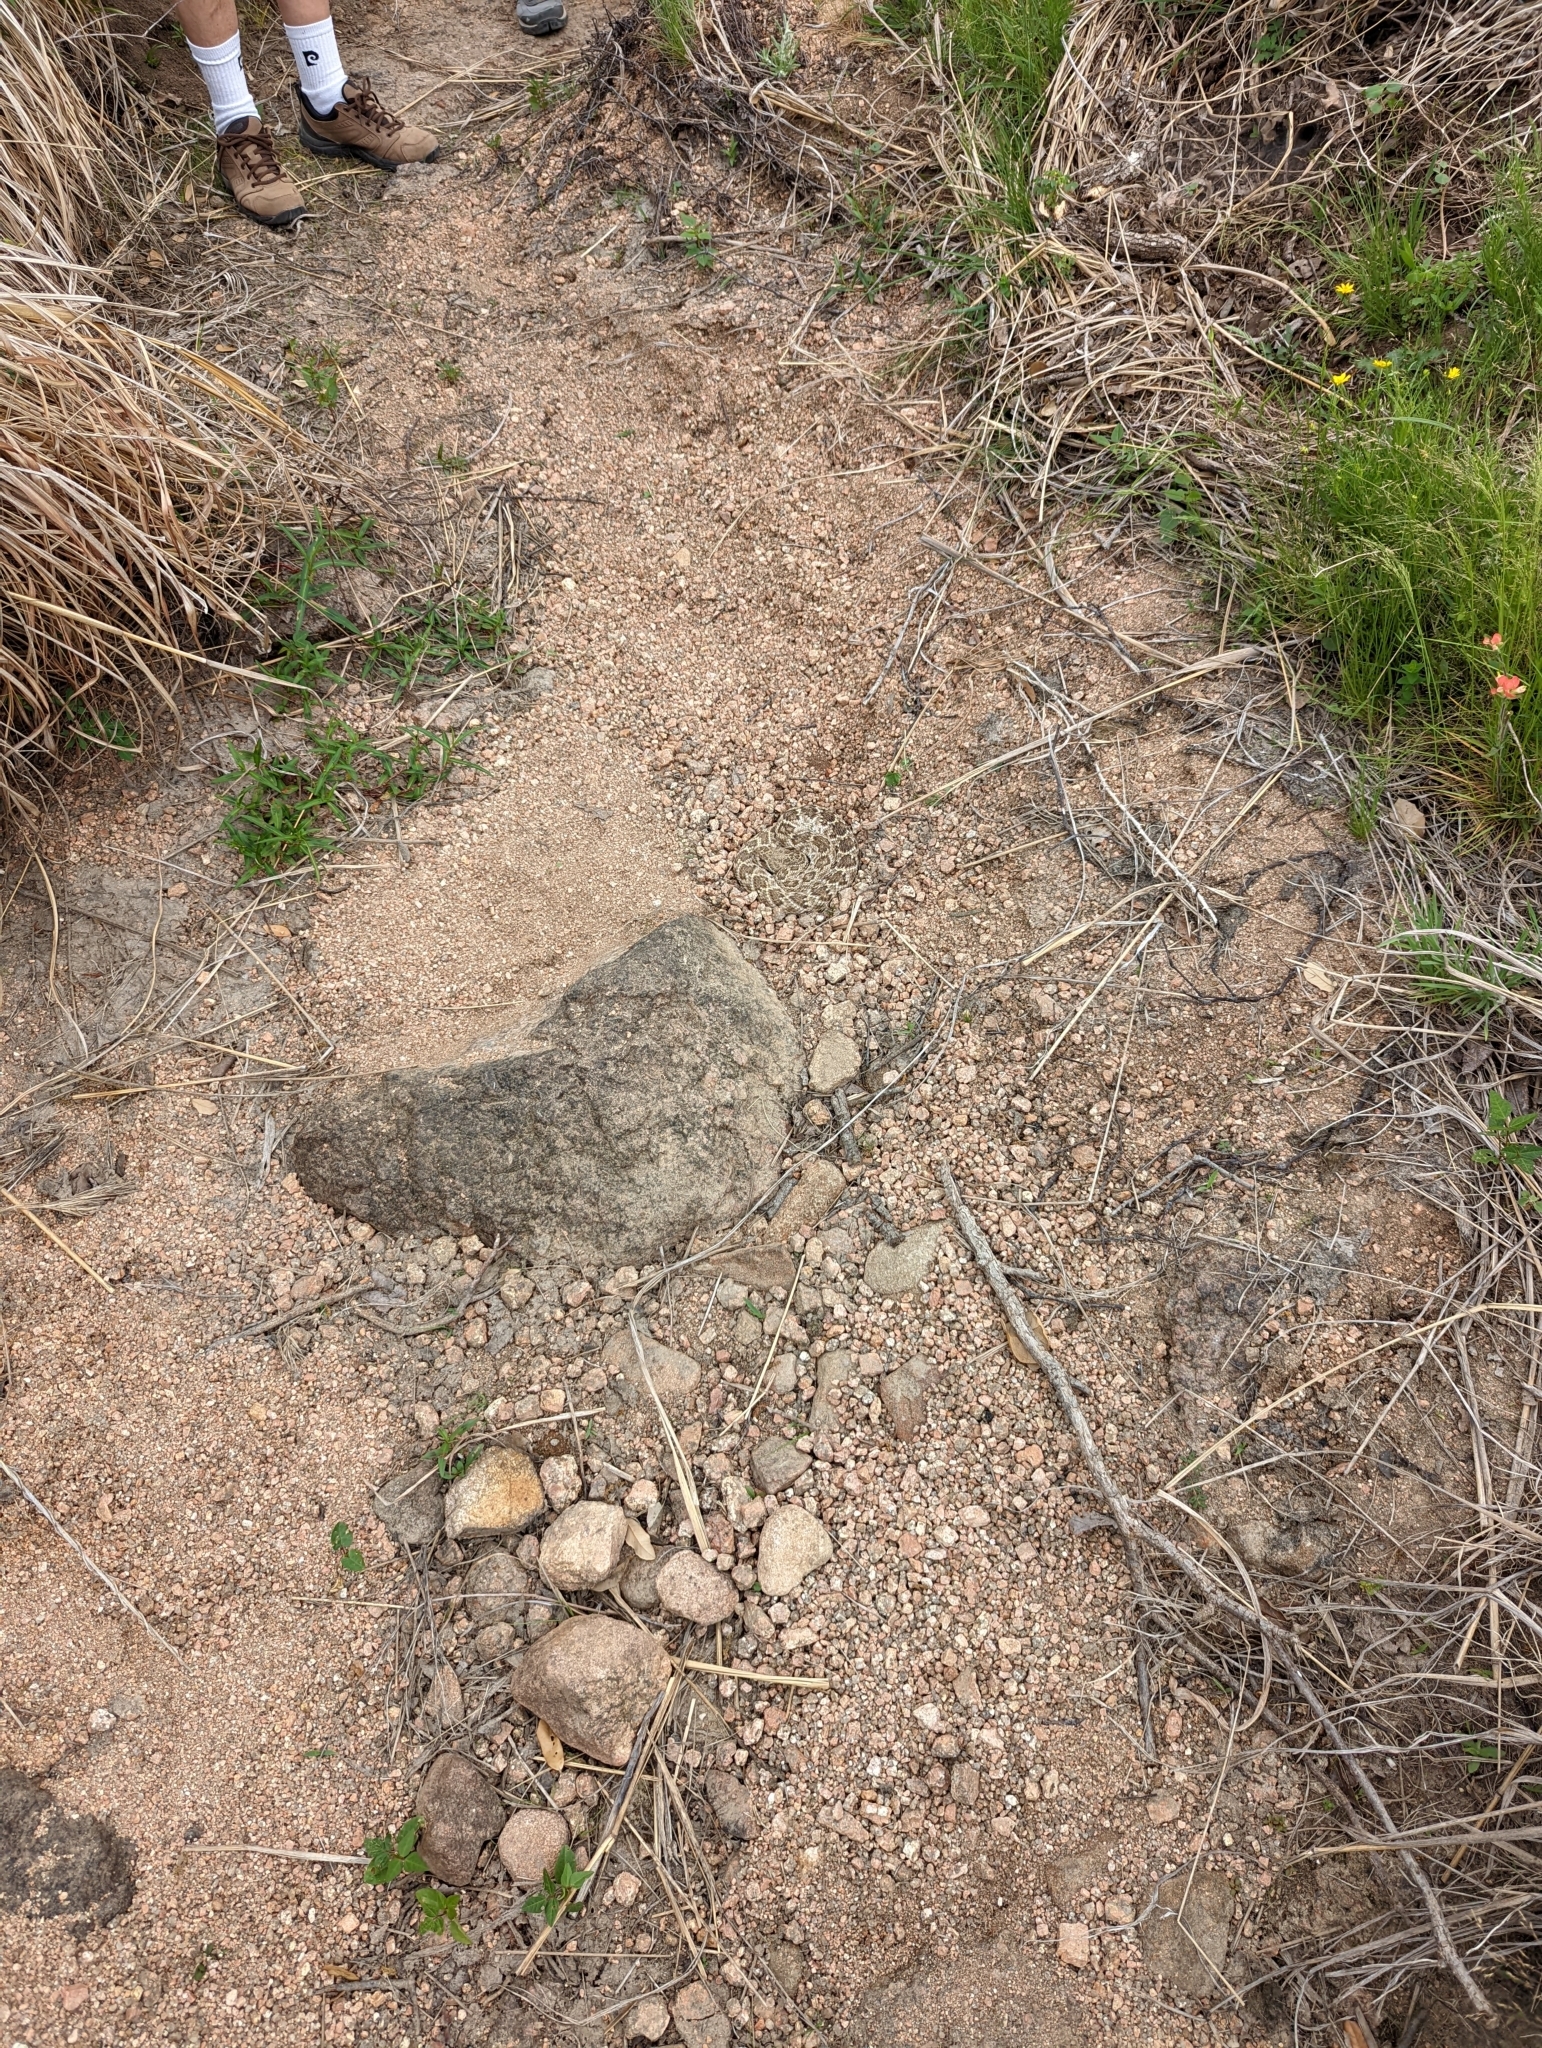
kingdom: Animalia
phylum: Chordata
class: Squamata
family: Viperidae
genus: Crotalus
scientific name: Crotalus atrox
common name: Western diamond-backed rattlesnake
